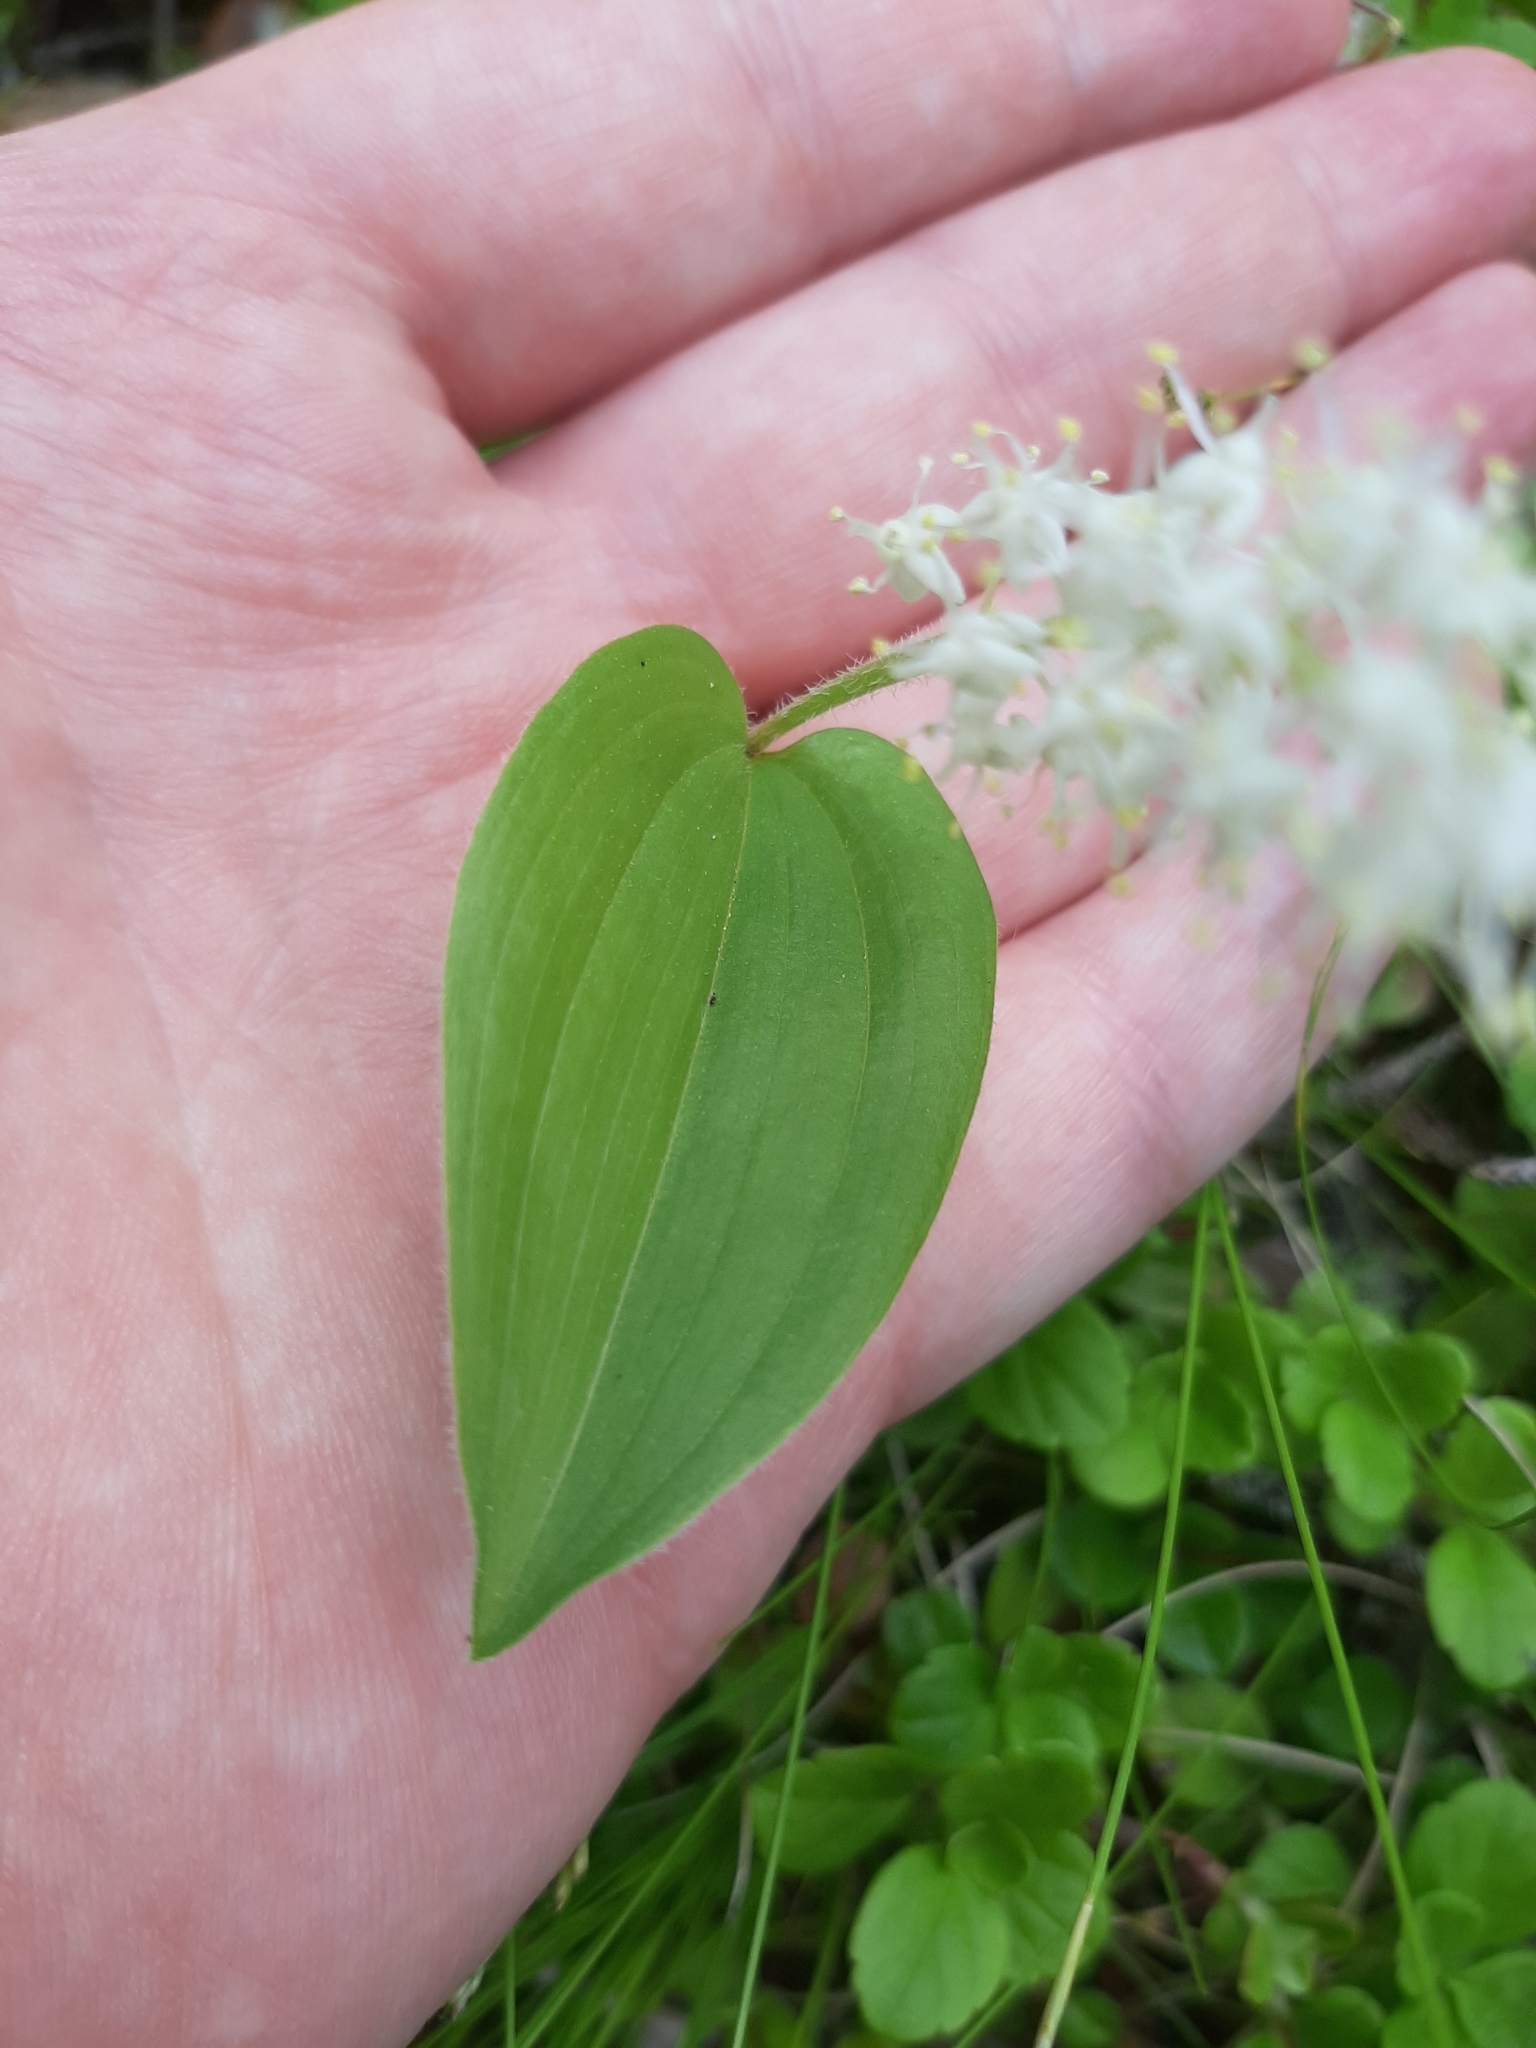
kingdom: Plantae
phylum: Tracheophyta
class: Liliopsida
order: Asparagales
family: Asparagaceae
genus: Maianthemum
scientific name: Maianthemum canadense
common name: False lily-of-the-valley
